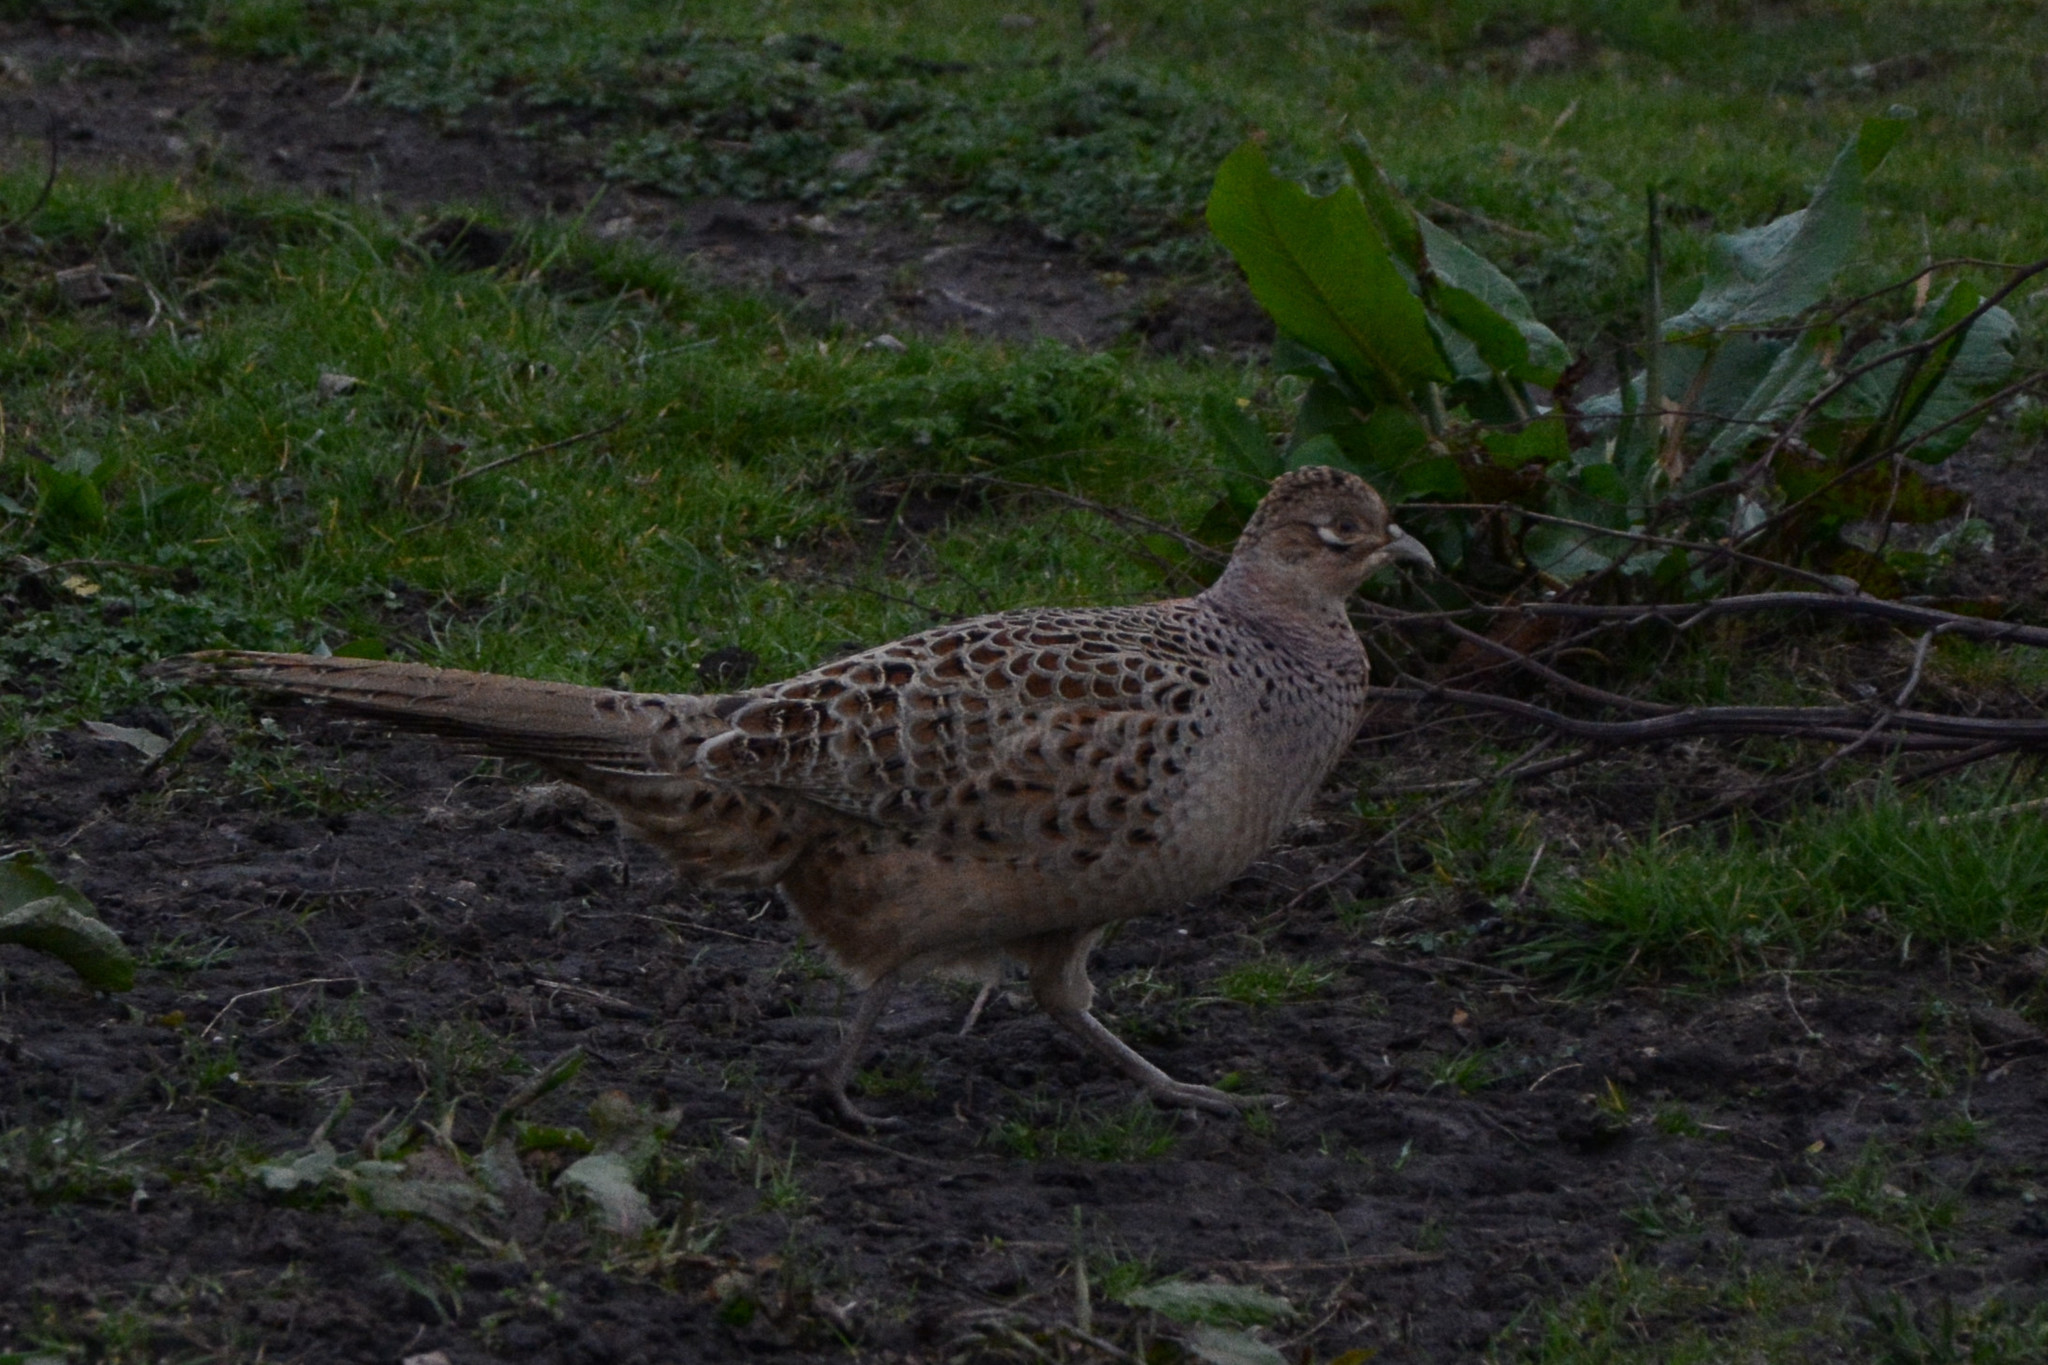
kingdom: Animalia
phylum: Chordata
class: Aves
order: Galliformes
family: Phasianidae
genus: Phasianus
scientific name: Phasianus colchicus
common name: Common pheasant
